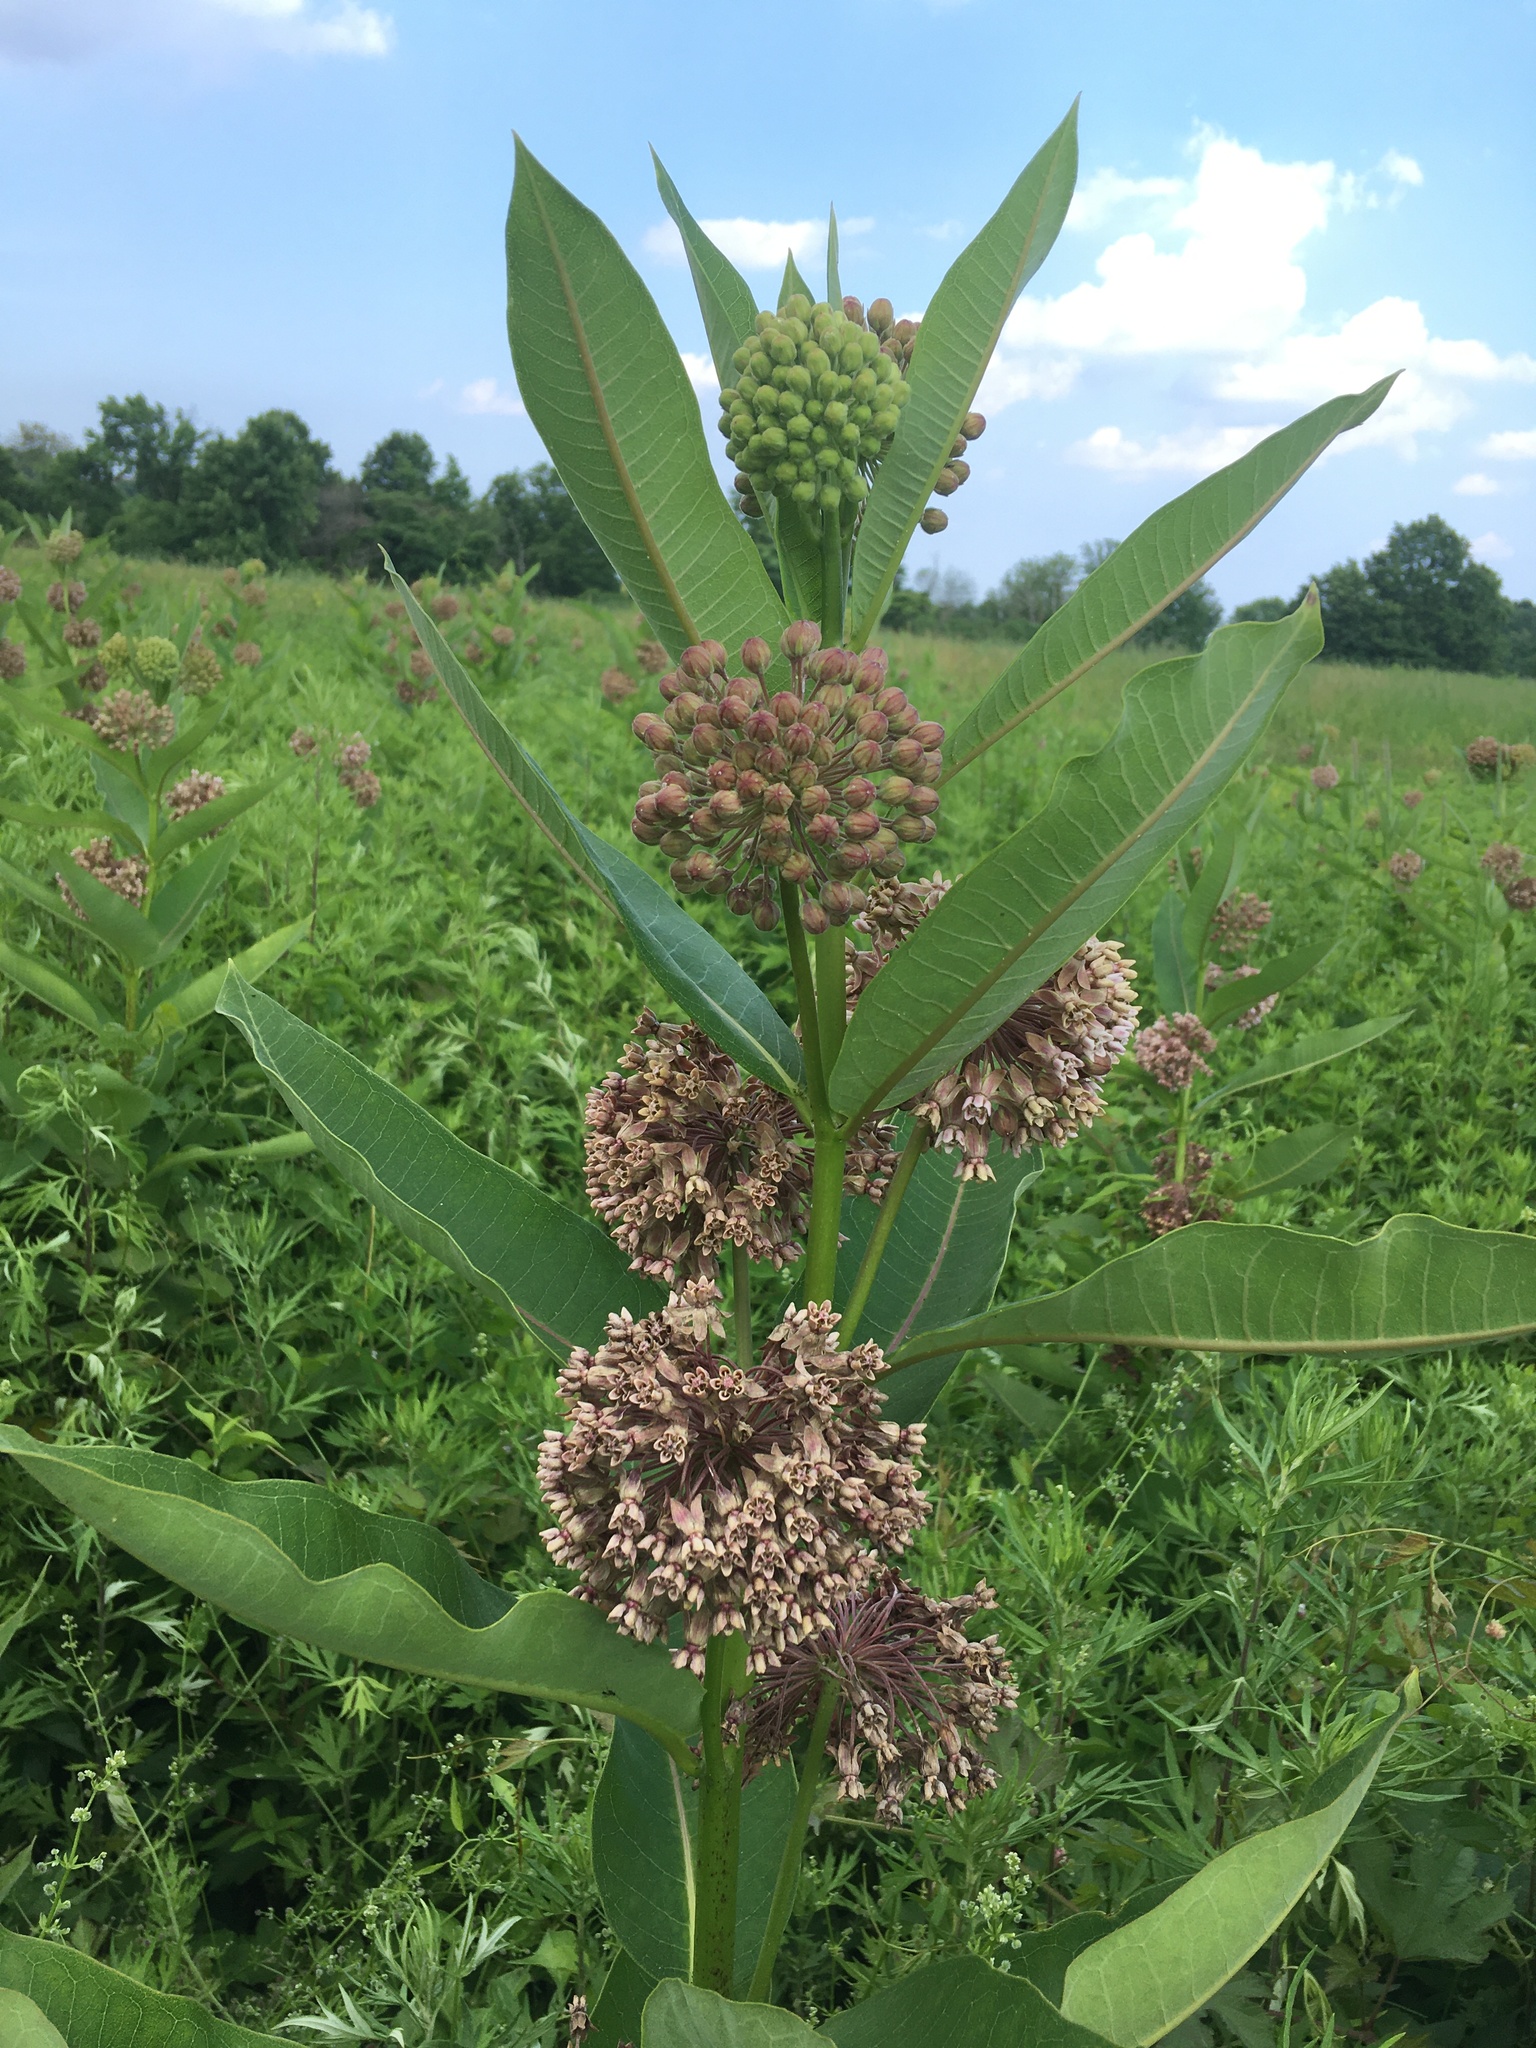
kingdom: Plantae
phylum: Tracheophyta
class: Magnoliopsida
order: Gentianales
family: Apocynaceae
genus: Asclepias
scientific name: Asclepias syriaca
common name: Common milkweed
